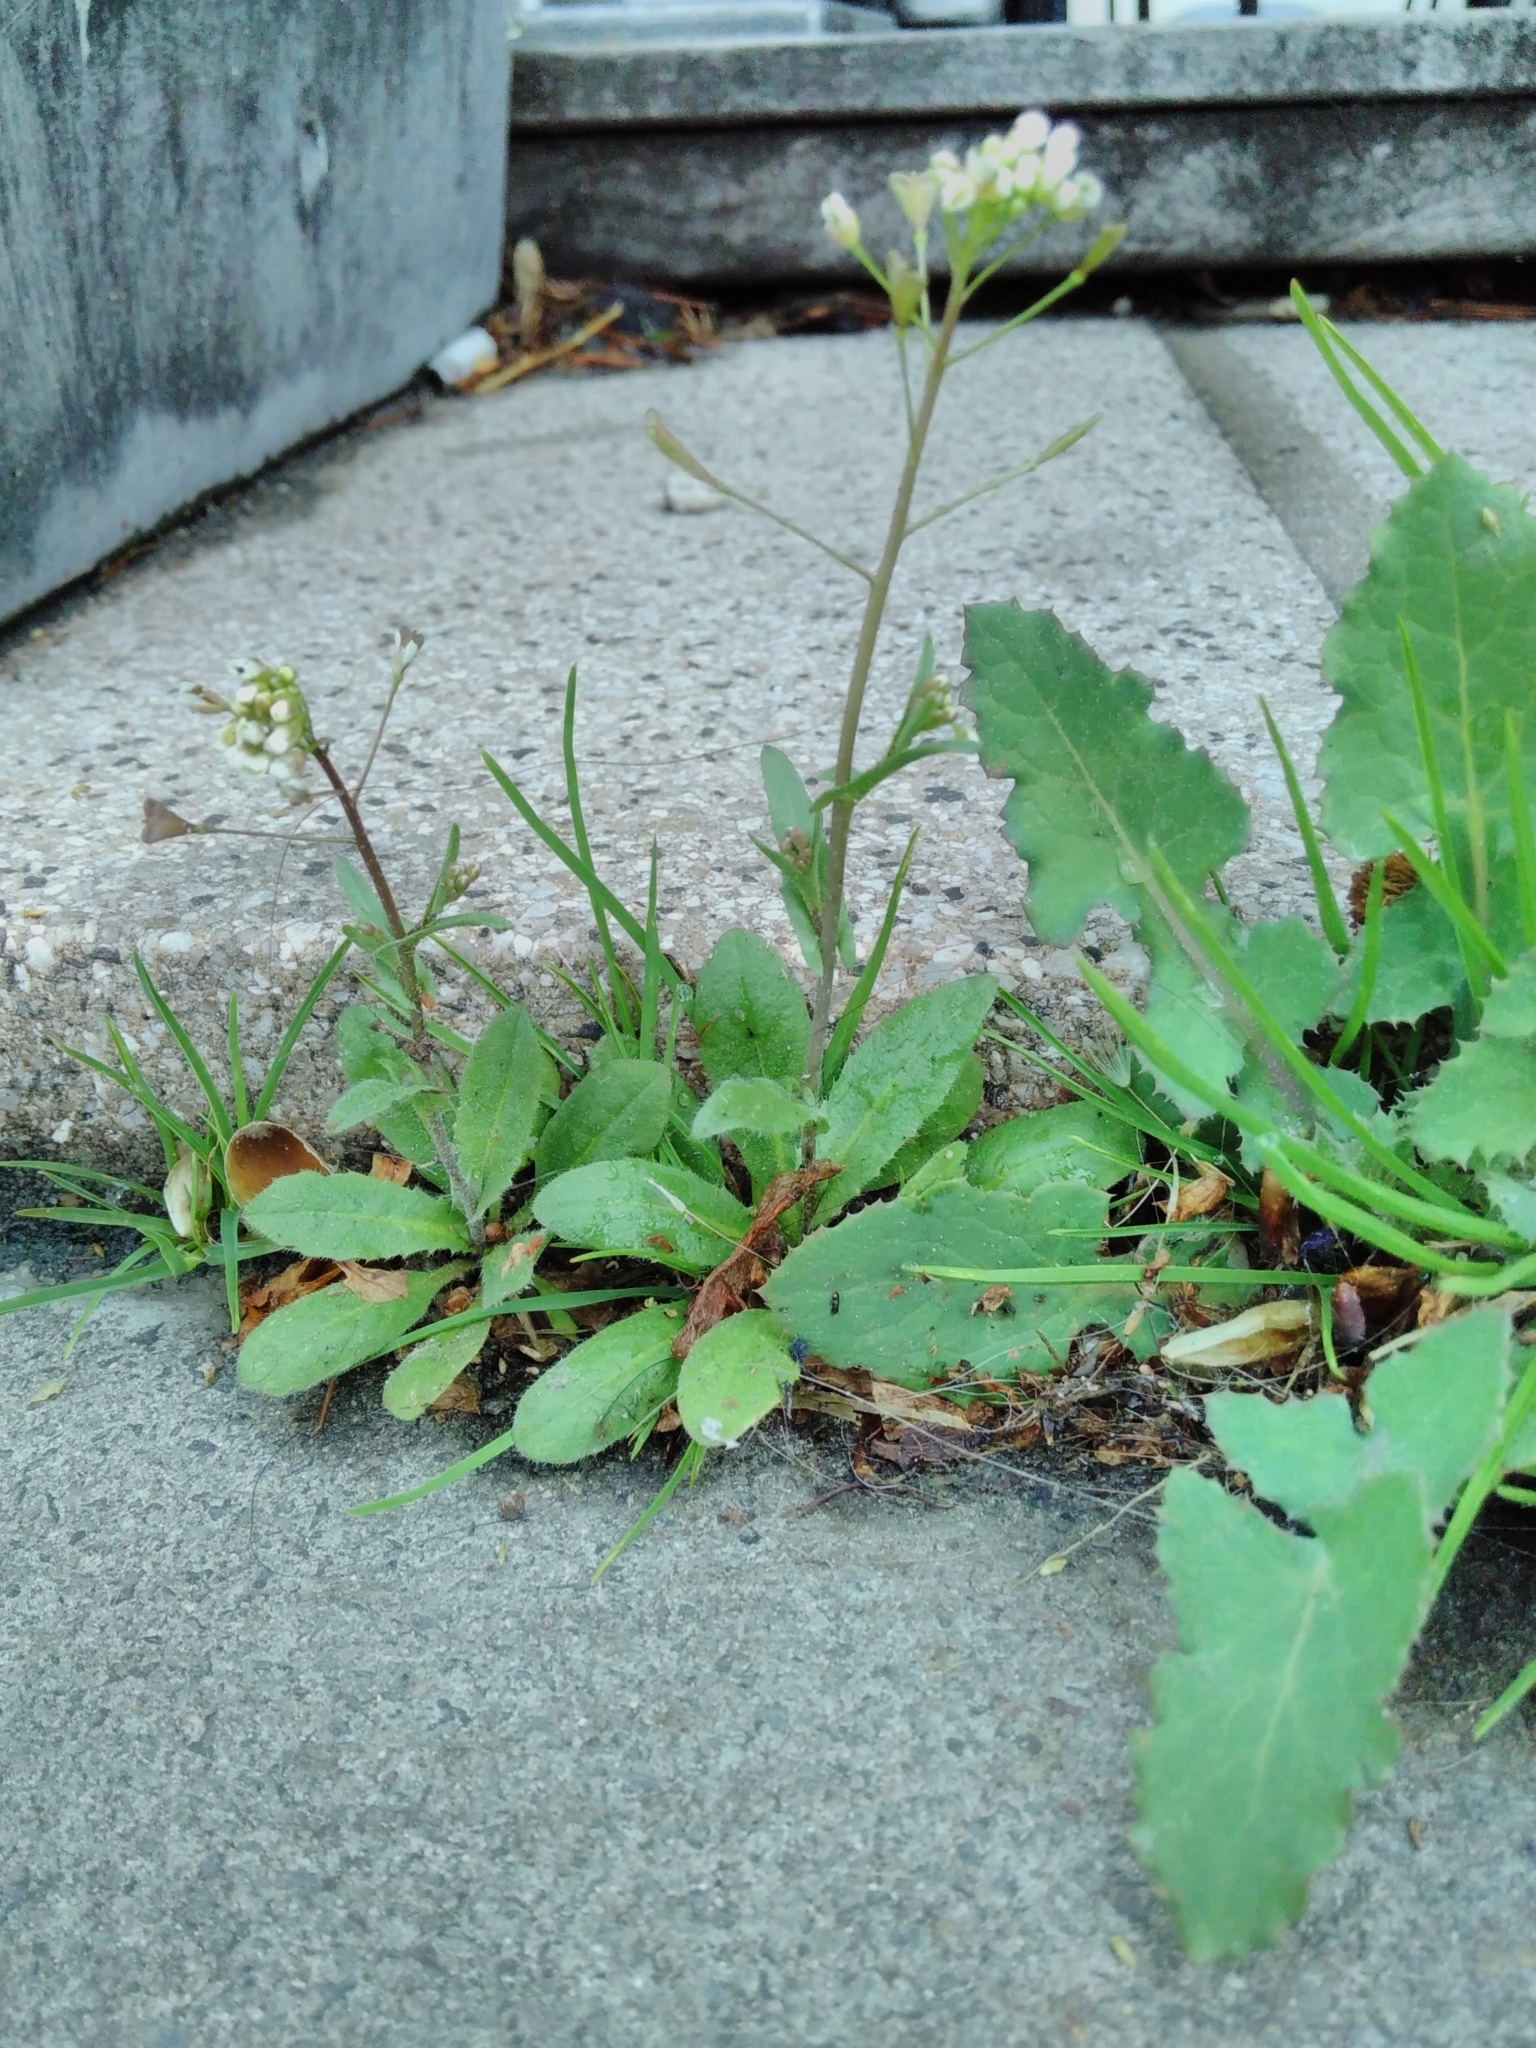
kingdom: Plantae
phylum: Tracheophyta
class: Magnoliopsida
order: Brassicales
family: Brassicaceae
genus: Capsella
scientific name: Capsella bursa-pastoris
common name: Shepherd's purse
